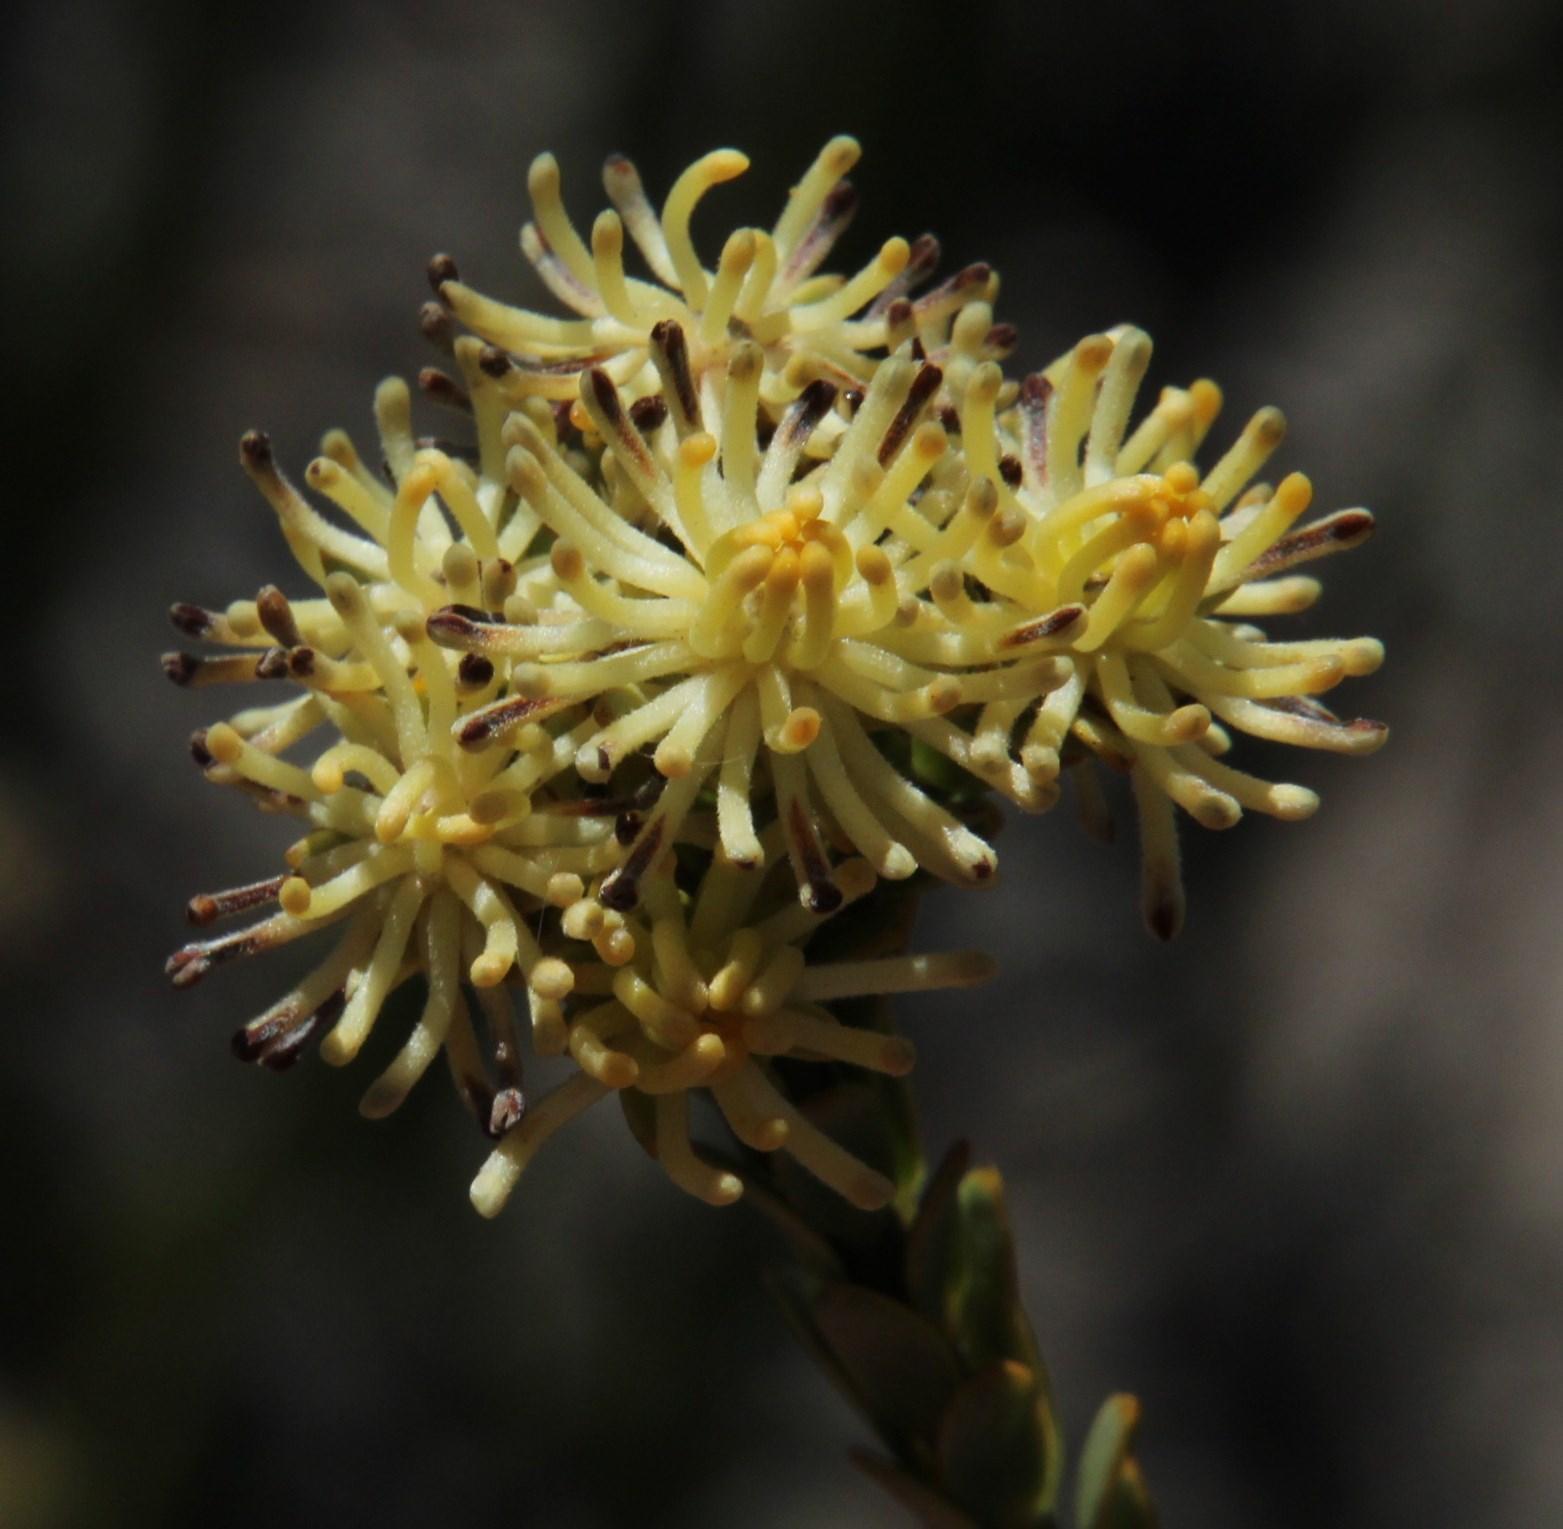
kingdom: Plantae
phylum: Tracheophyta
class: Magnoliopsida
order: Proteales
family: Proteaceae
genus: Leucadendron
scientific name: Leucadendron thymifolium
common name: Malmesbury conebush
